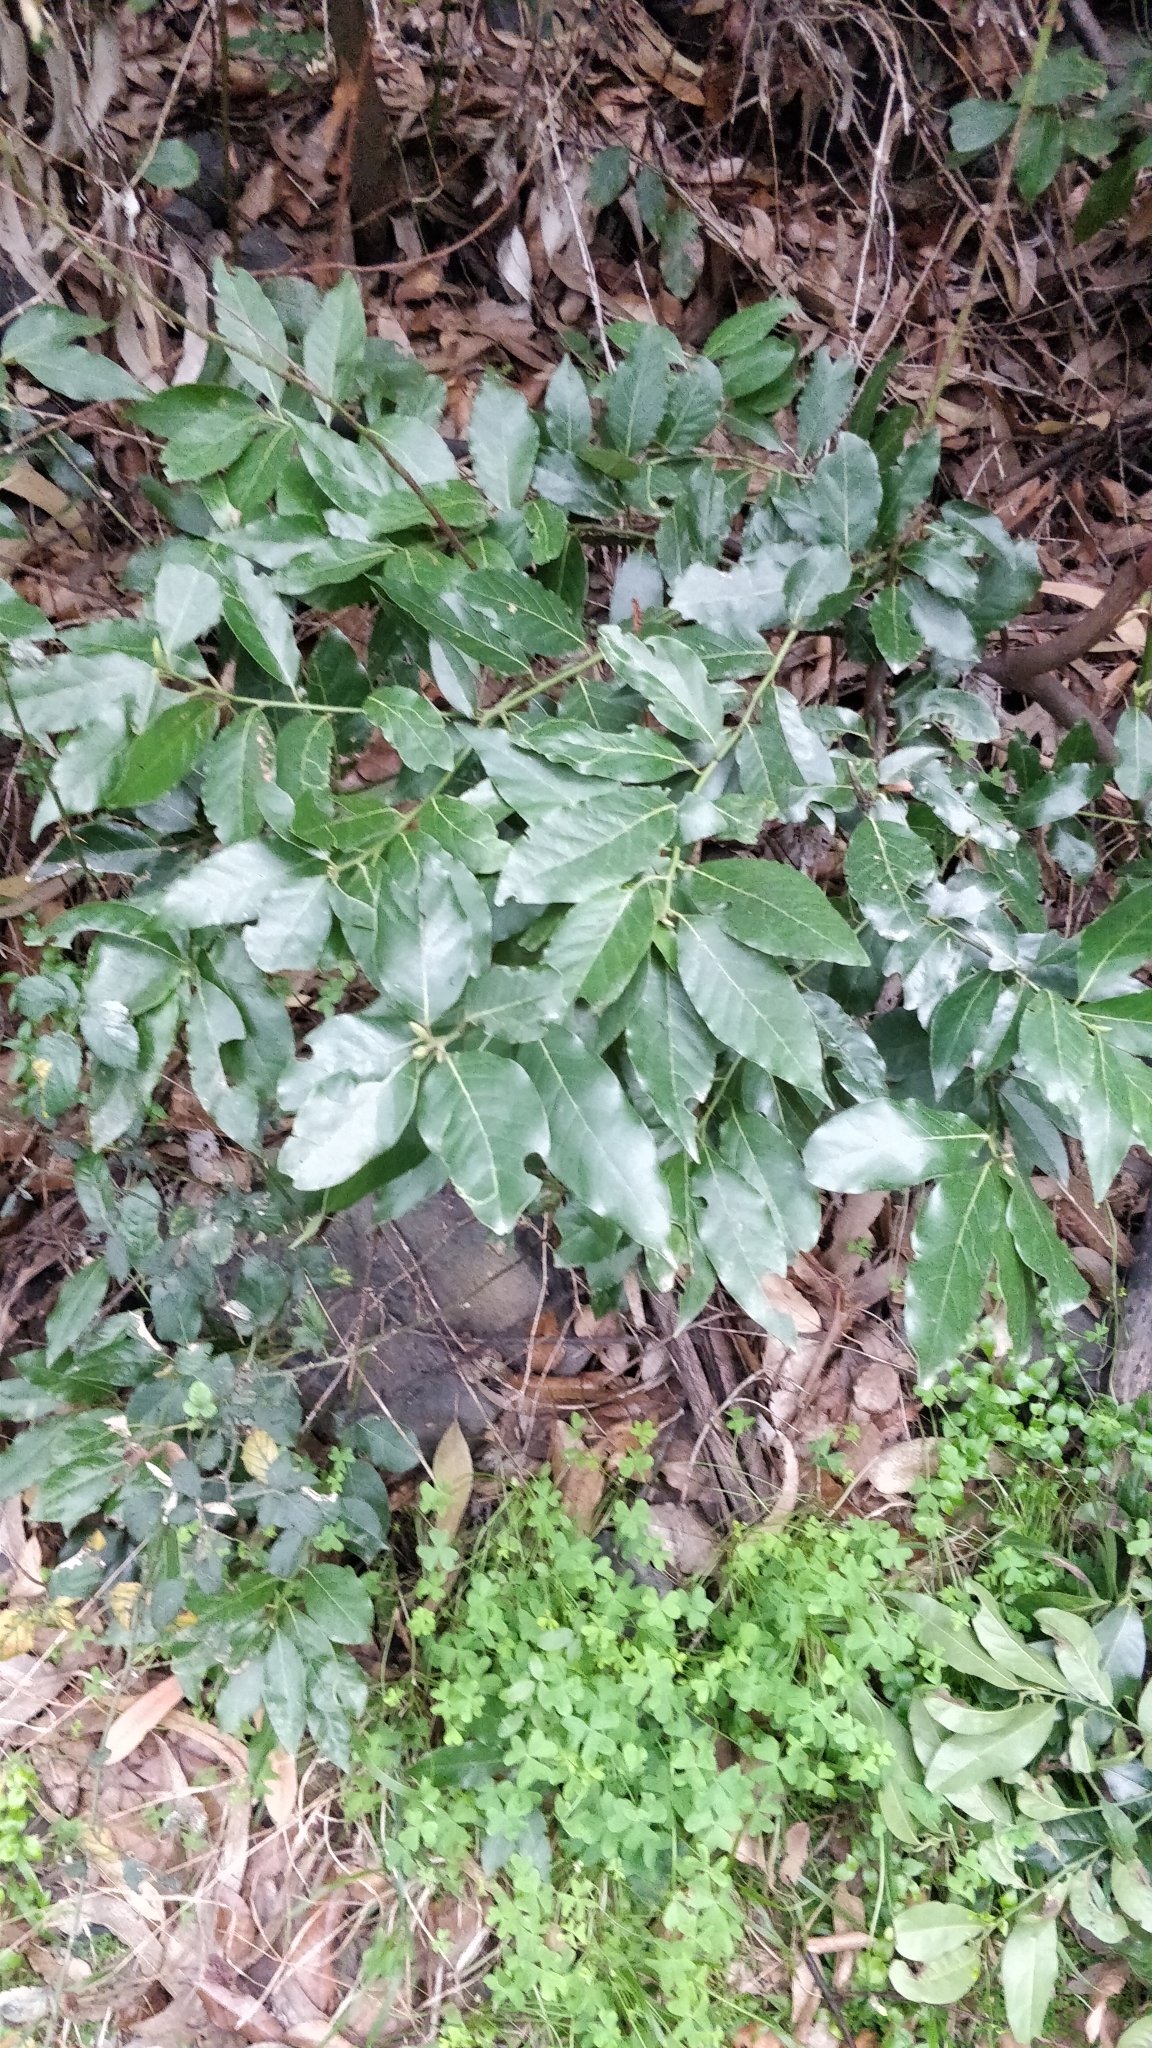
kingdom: Plantae
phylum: Tracheophyta
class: Magnoliopsida
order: Laurales
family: Lauraceae
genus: Laurus
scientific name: Laurus novocanariensis
